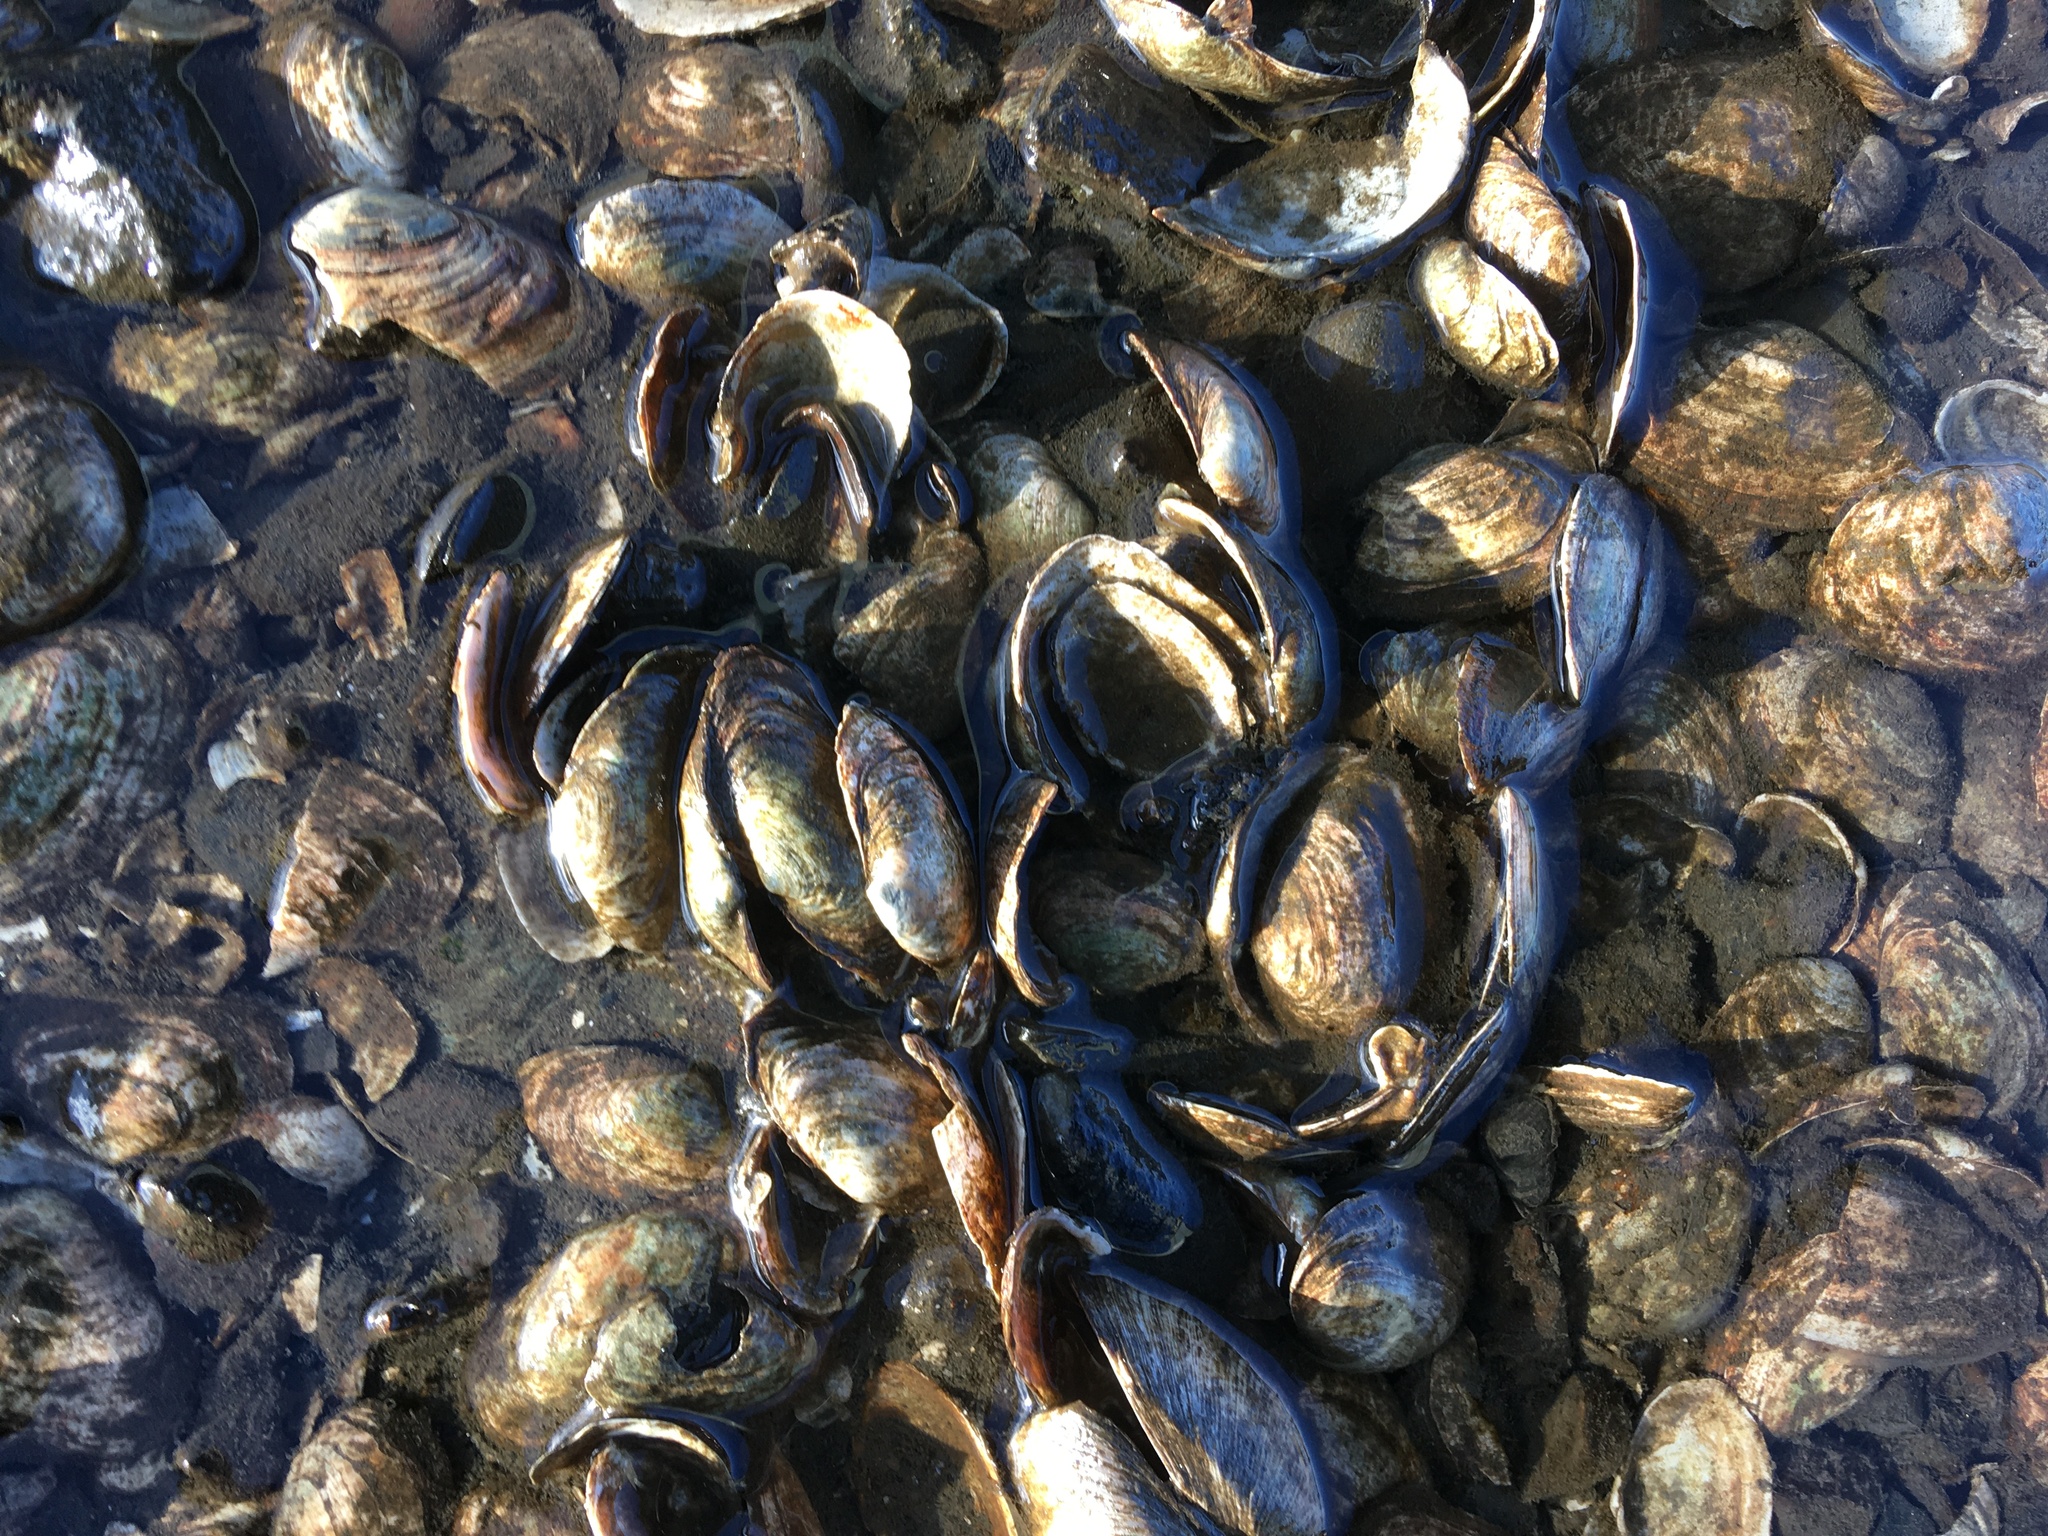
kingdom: Animalia
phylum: Mollusca
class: Bivalvia
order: Myida
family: Myidae
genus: Mya
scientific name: Mya arenaria
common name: Soft-shelled clam
